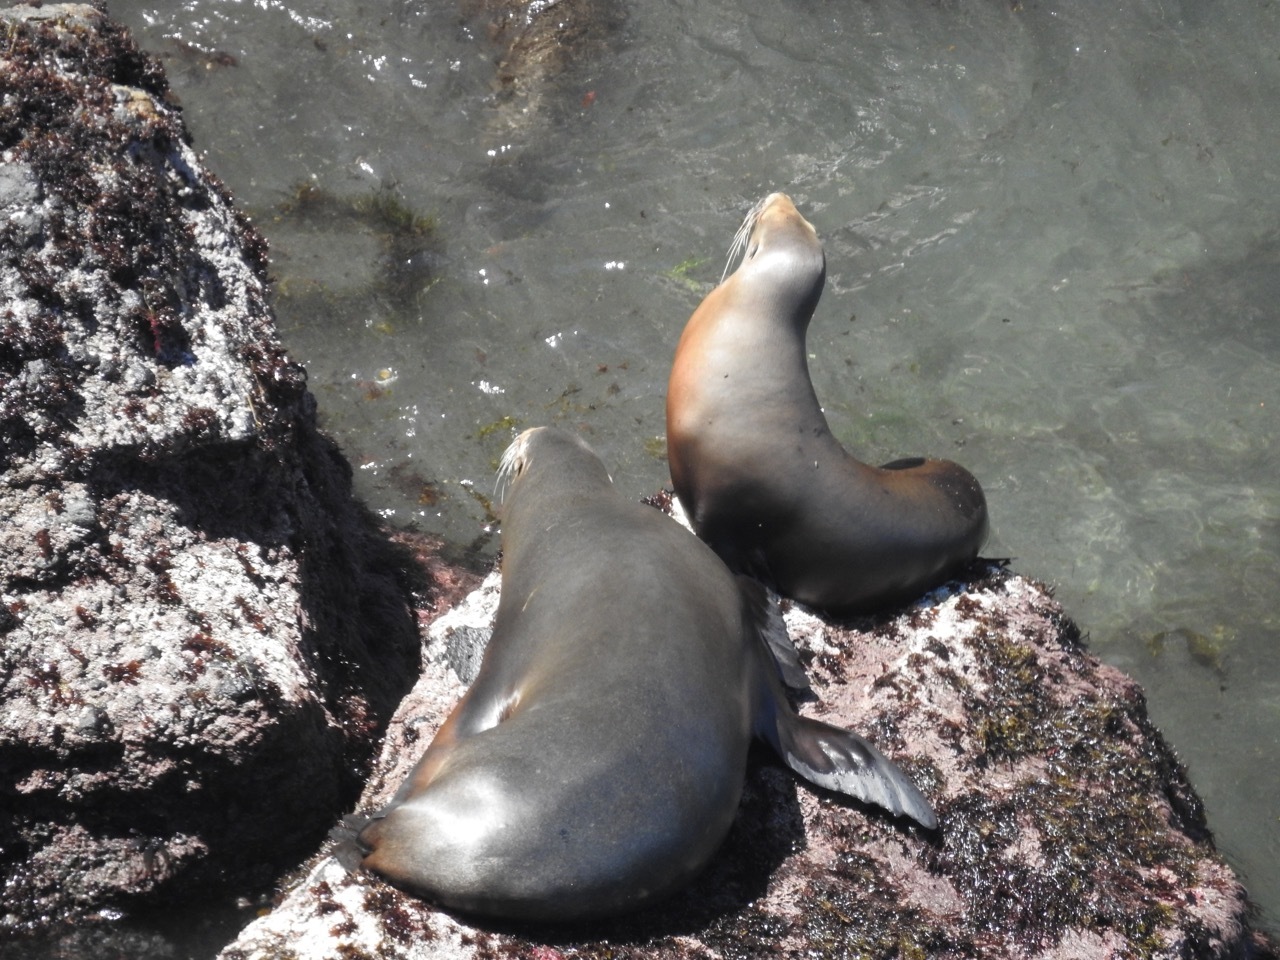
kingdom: Animalia
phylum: Chordata
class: Mammalia
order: Carnivora
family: Otariidae
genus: Zalophus
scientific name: Zalophus californianus
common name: California sea lion
